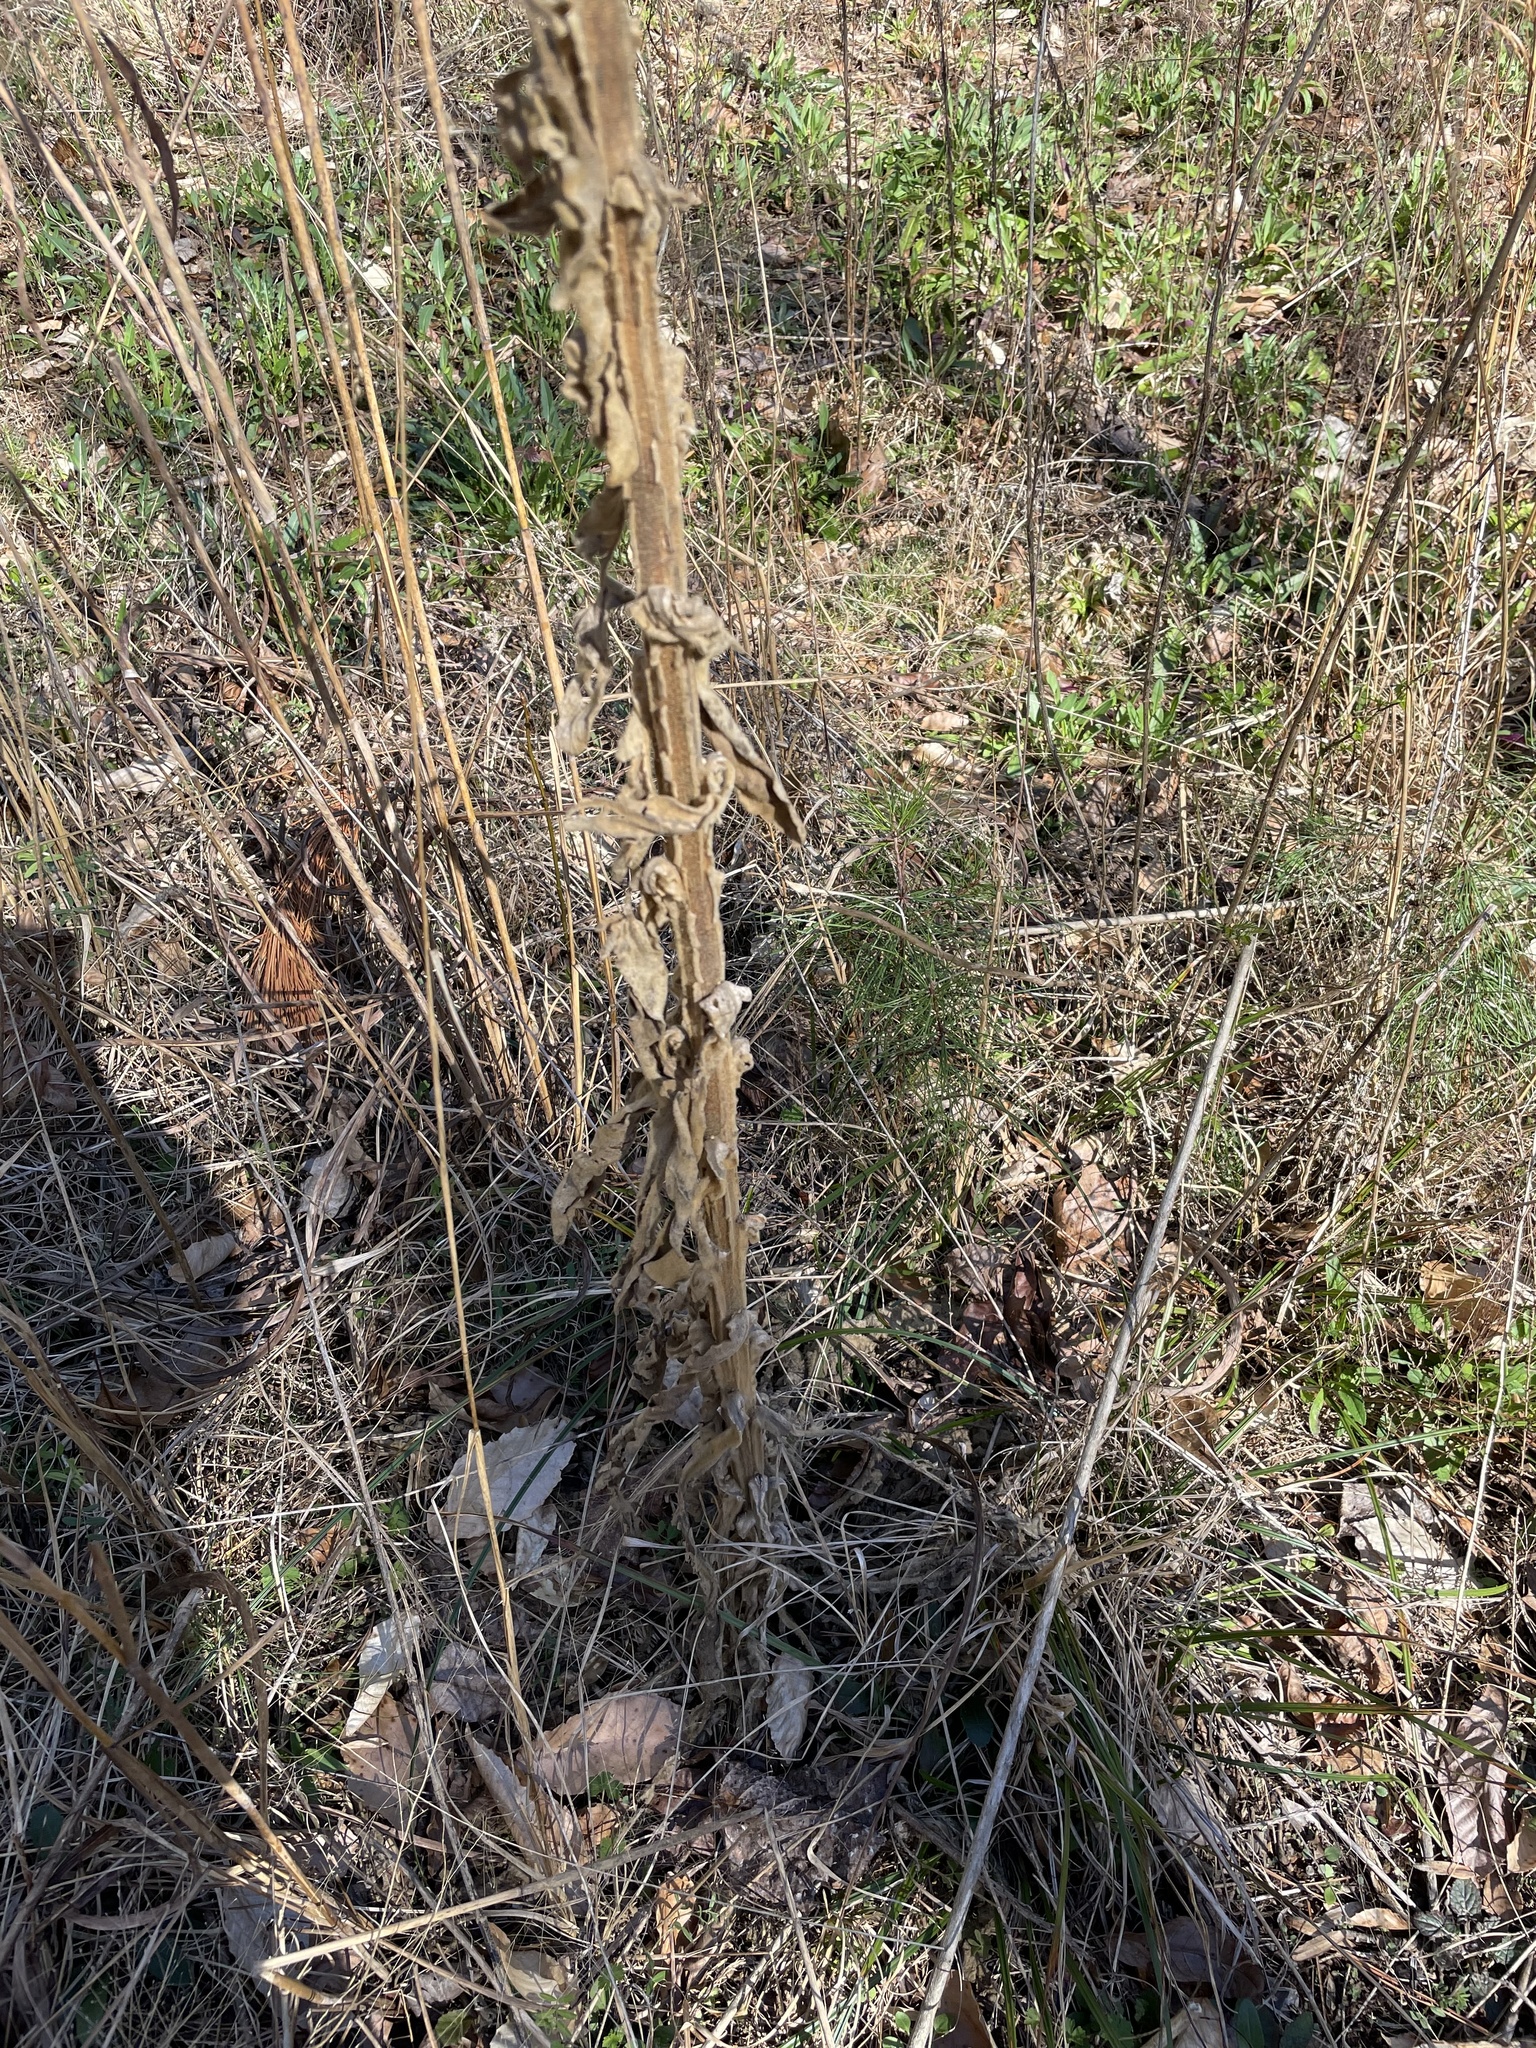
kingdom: Plantae
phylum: Tracheophyta
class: Magnoliopsida
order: Lamiales
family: Scrophulariaceae
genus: Verbascum
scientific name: Verbascum thapsus
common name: Common mullein
